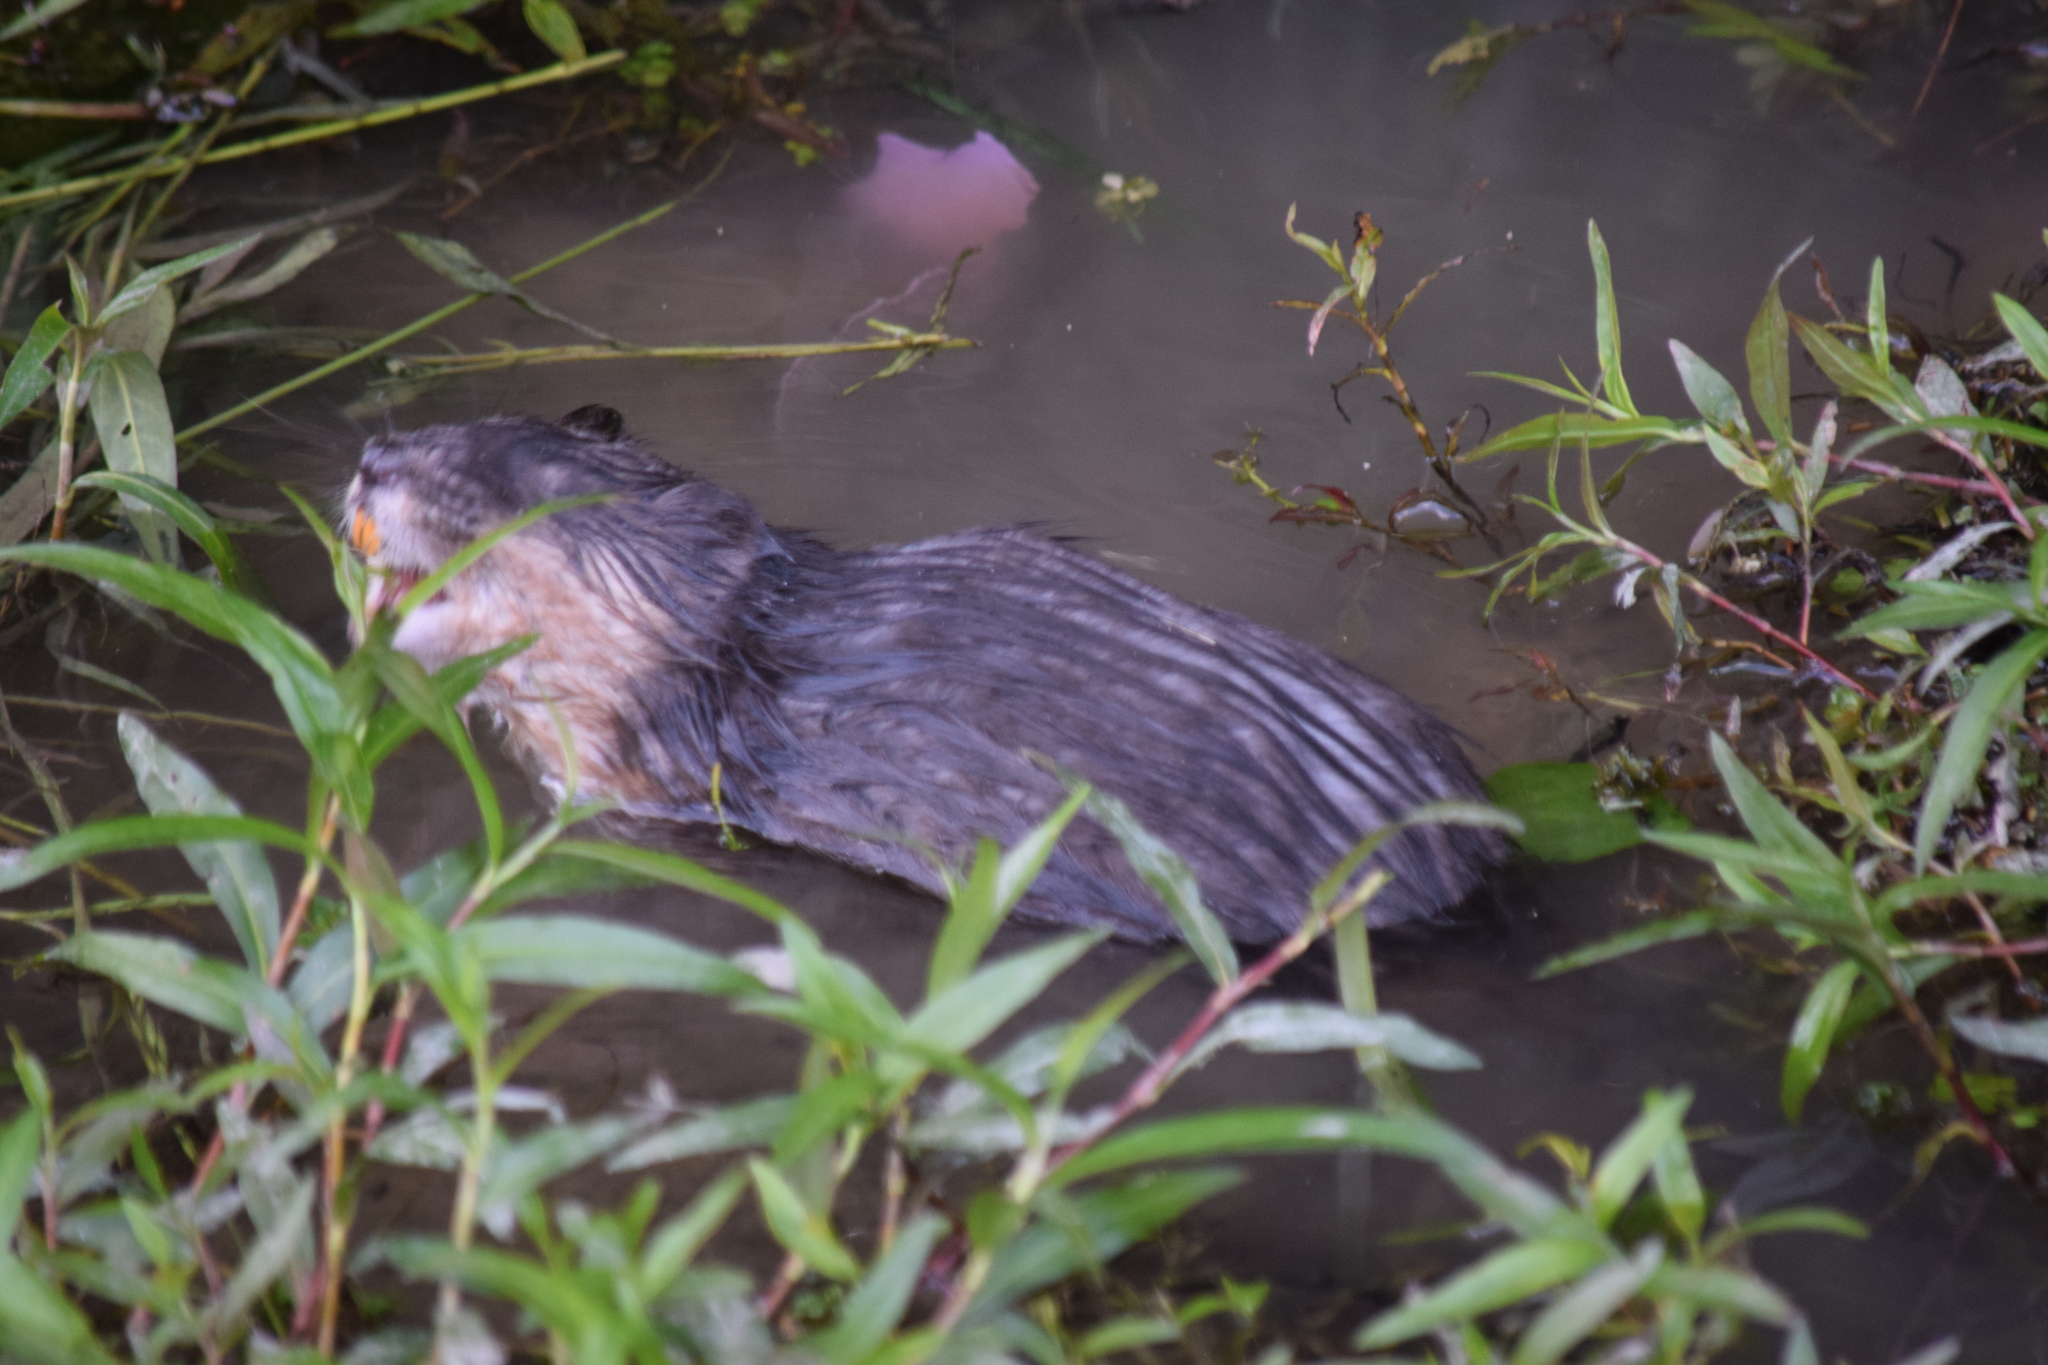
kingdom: Animalia
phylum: Chordata
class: Mammalia
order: Rodentia
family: Cricetidae
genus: Ondatra
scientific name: Ondatra zibethicus
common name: Muskrat
